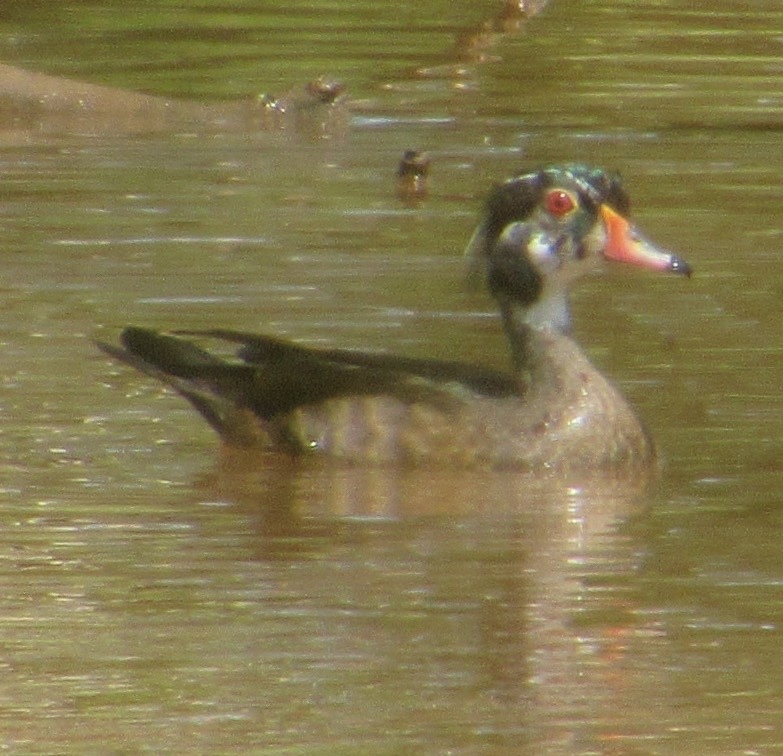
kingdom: Animalia
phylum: Chordata
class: Aves
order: Anseriformes
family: Anatidae
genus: Aix
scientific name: Aix sponsa
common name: Wood duck
